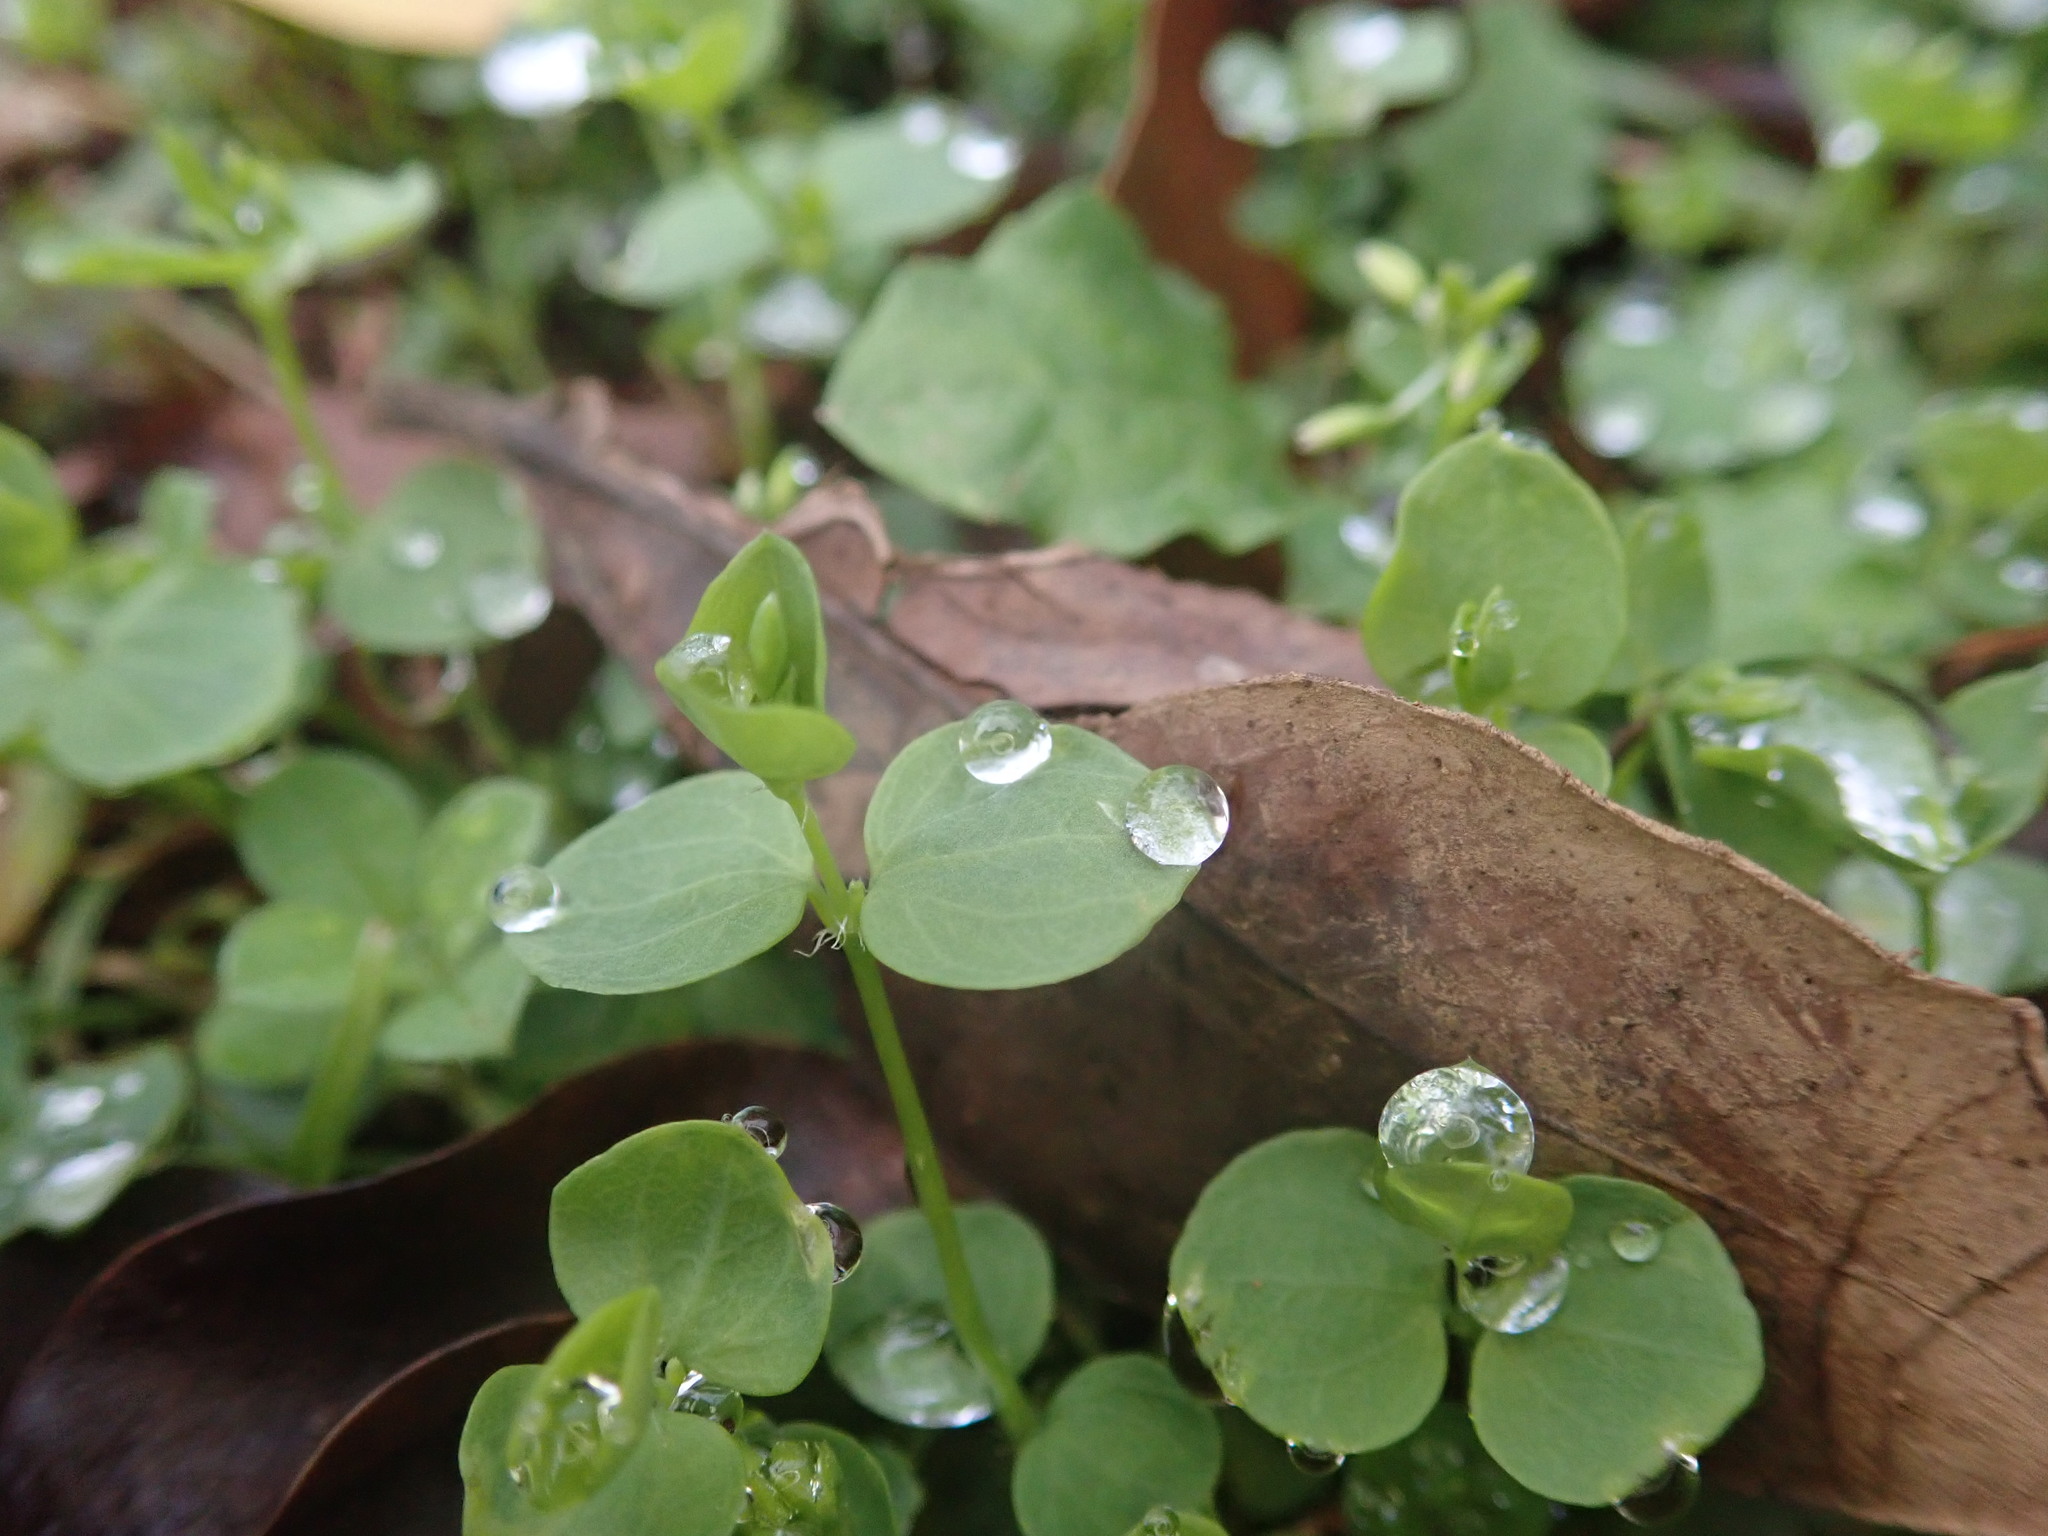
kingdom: Plantae
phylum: Tracheophyta
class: Magnoliopsida
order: Caryophyllales
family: Caryophyllaceae
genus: Drymaria
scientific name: Drymaria cordata
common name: Whitesnow
